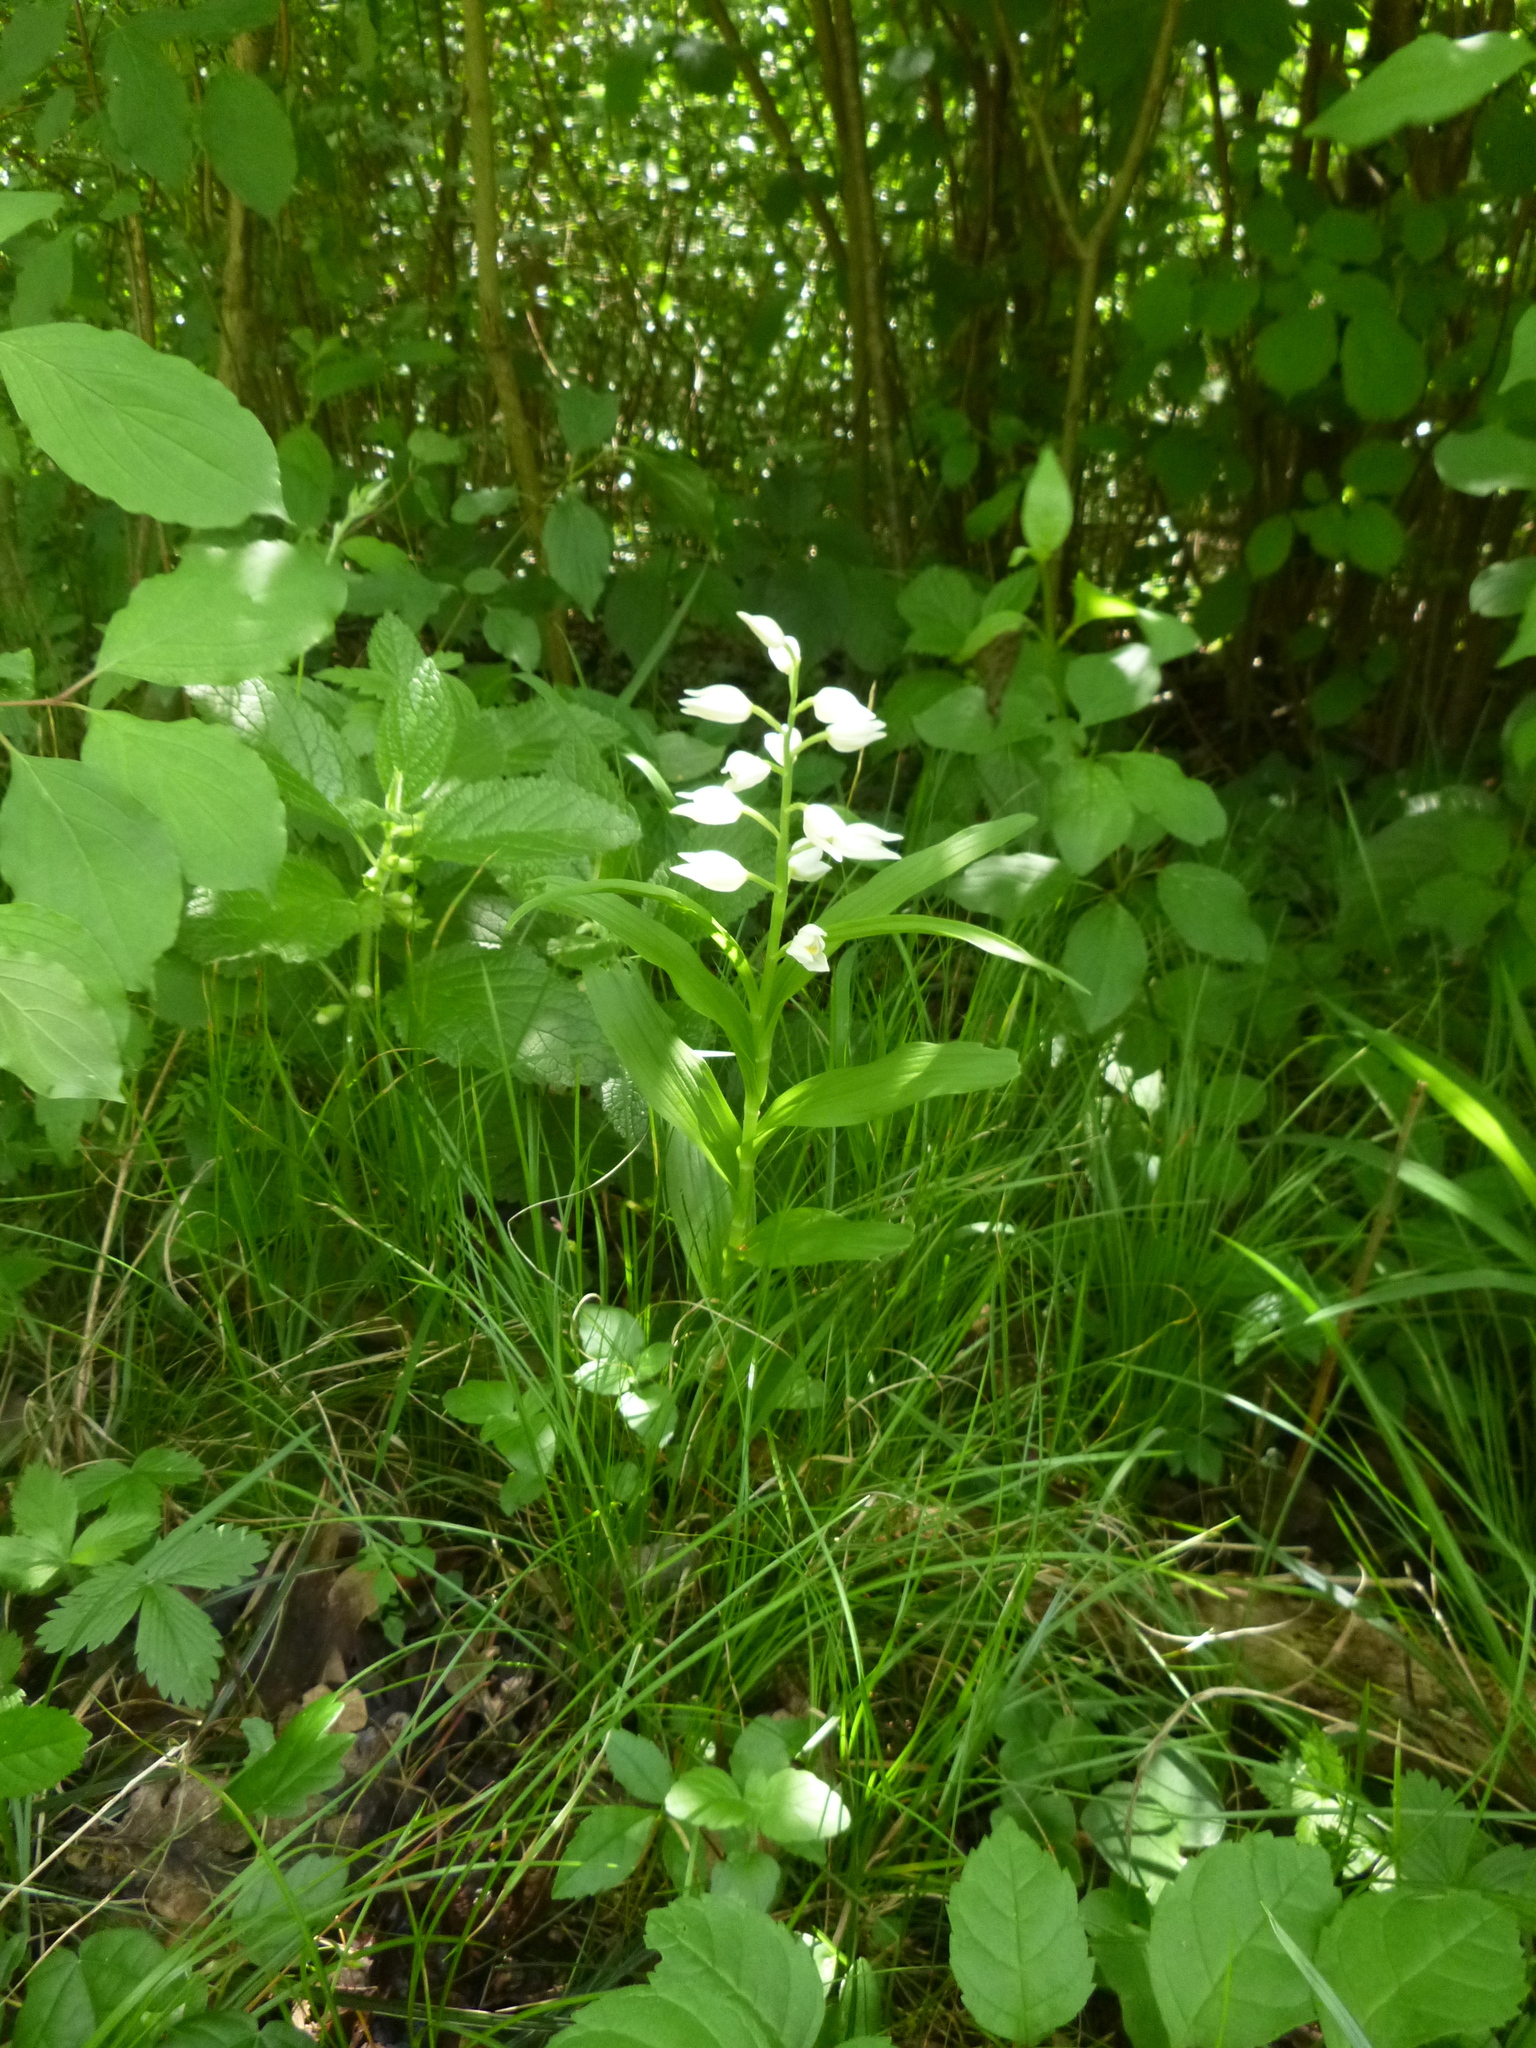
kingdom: Plantae
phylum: Tracheophyta
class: Liliopsida
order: Asparagales
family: Orchidaceae
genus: Cephalanthera
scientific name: Cephalanthera longifolia
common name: Narrow-leaved helleborine
